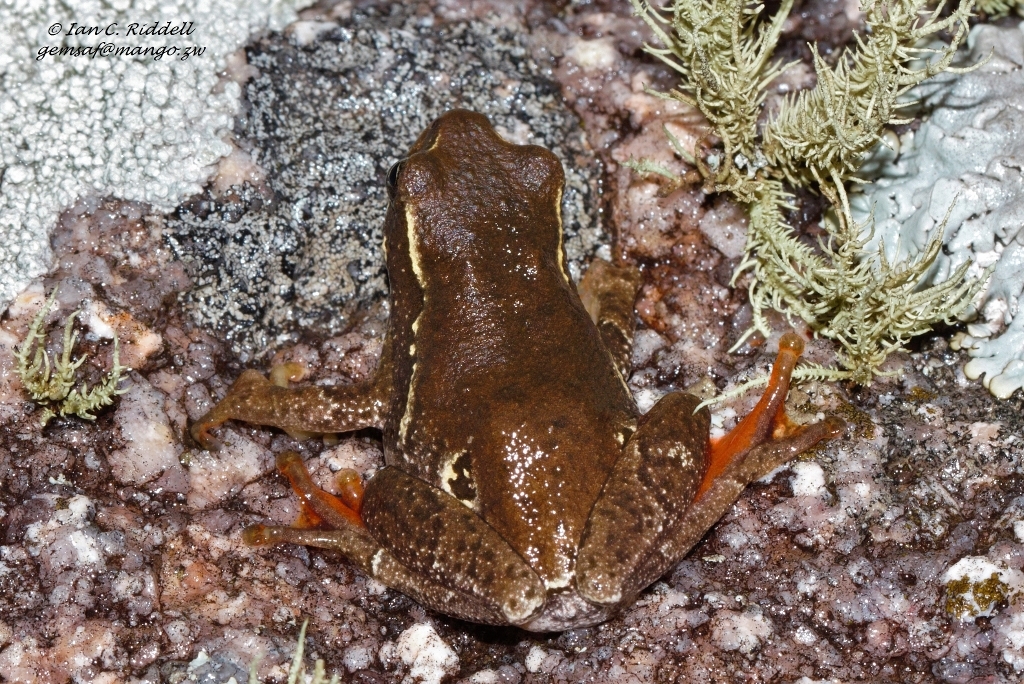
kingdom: Animalia
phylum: Chordata
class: Amphibia
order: Anura
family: Hyperoliidae
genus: Hyperolius
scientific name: Hyperolius marmoratus
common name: Painted reed frog
